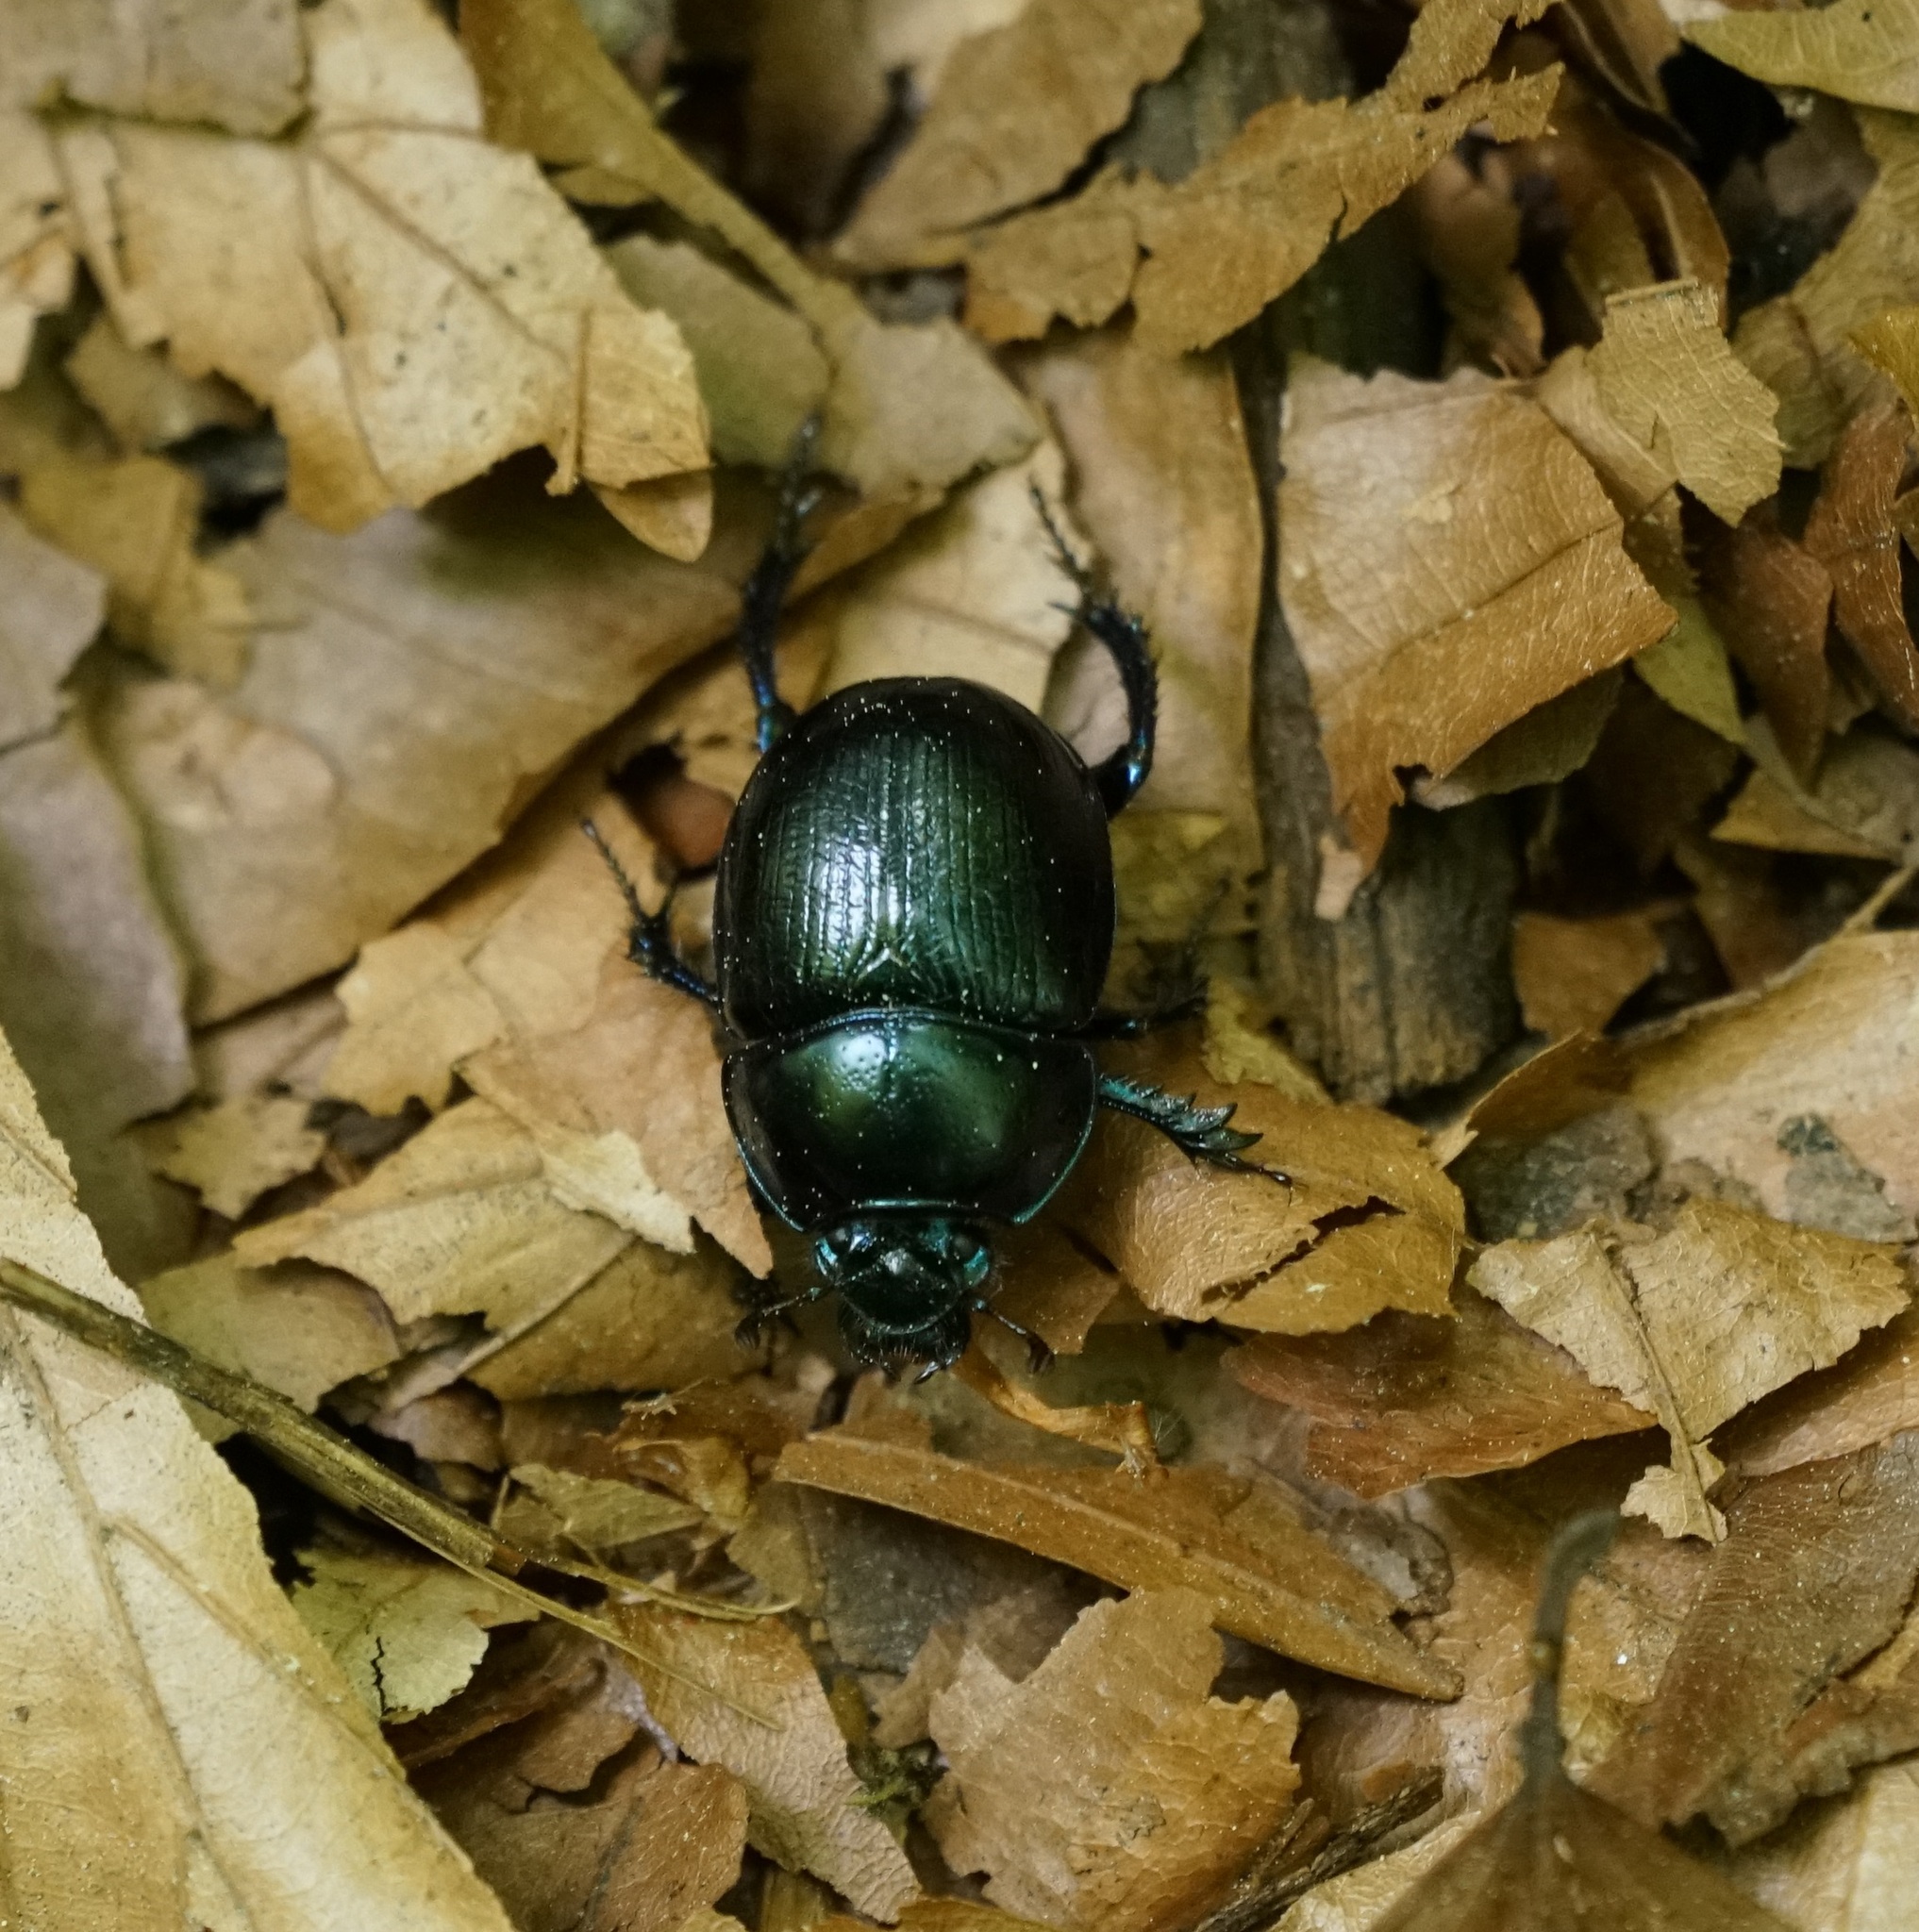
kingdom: Animalia
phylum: Arthropoda
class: Insecta
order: Coleoptera
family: Geotrupidae
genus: Anoplotrupes
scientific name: Anoplotrupes stercorosus
